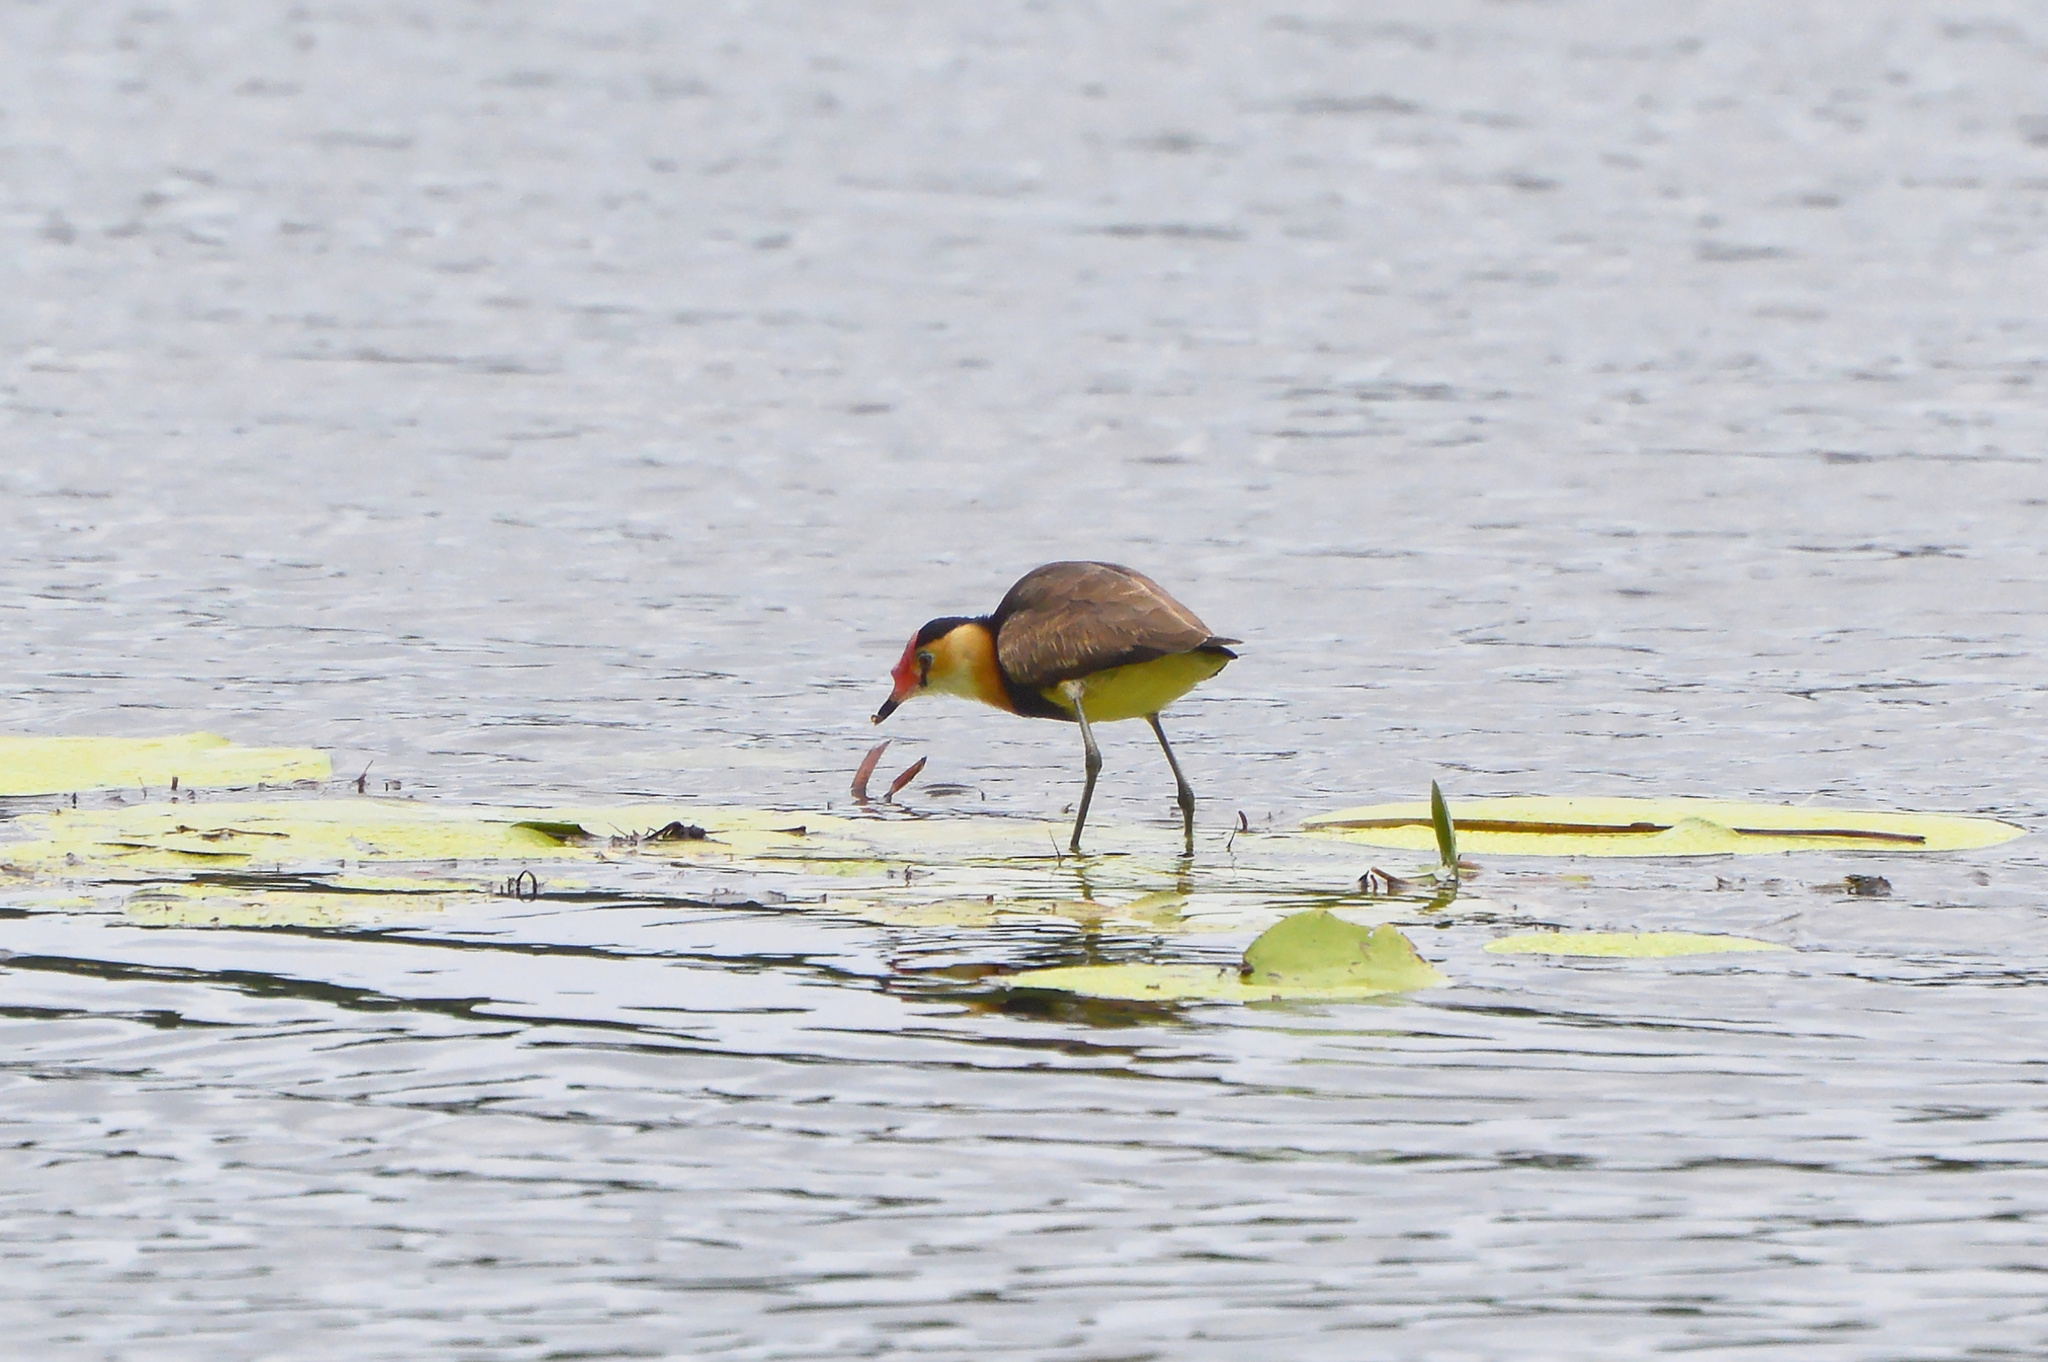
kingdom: Animalia
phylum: Chordata
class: Aves
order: Charadriiformes
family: Jacanidae
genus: Irediparra
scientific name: Irediparra gallinacea
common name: Comb-crested jacana
